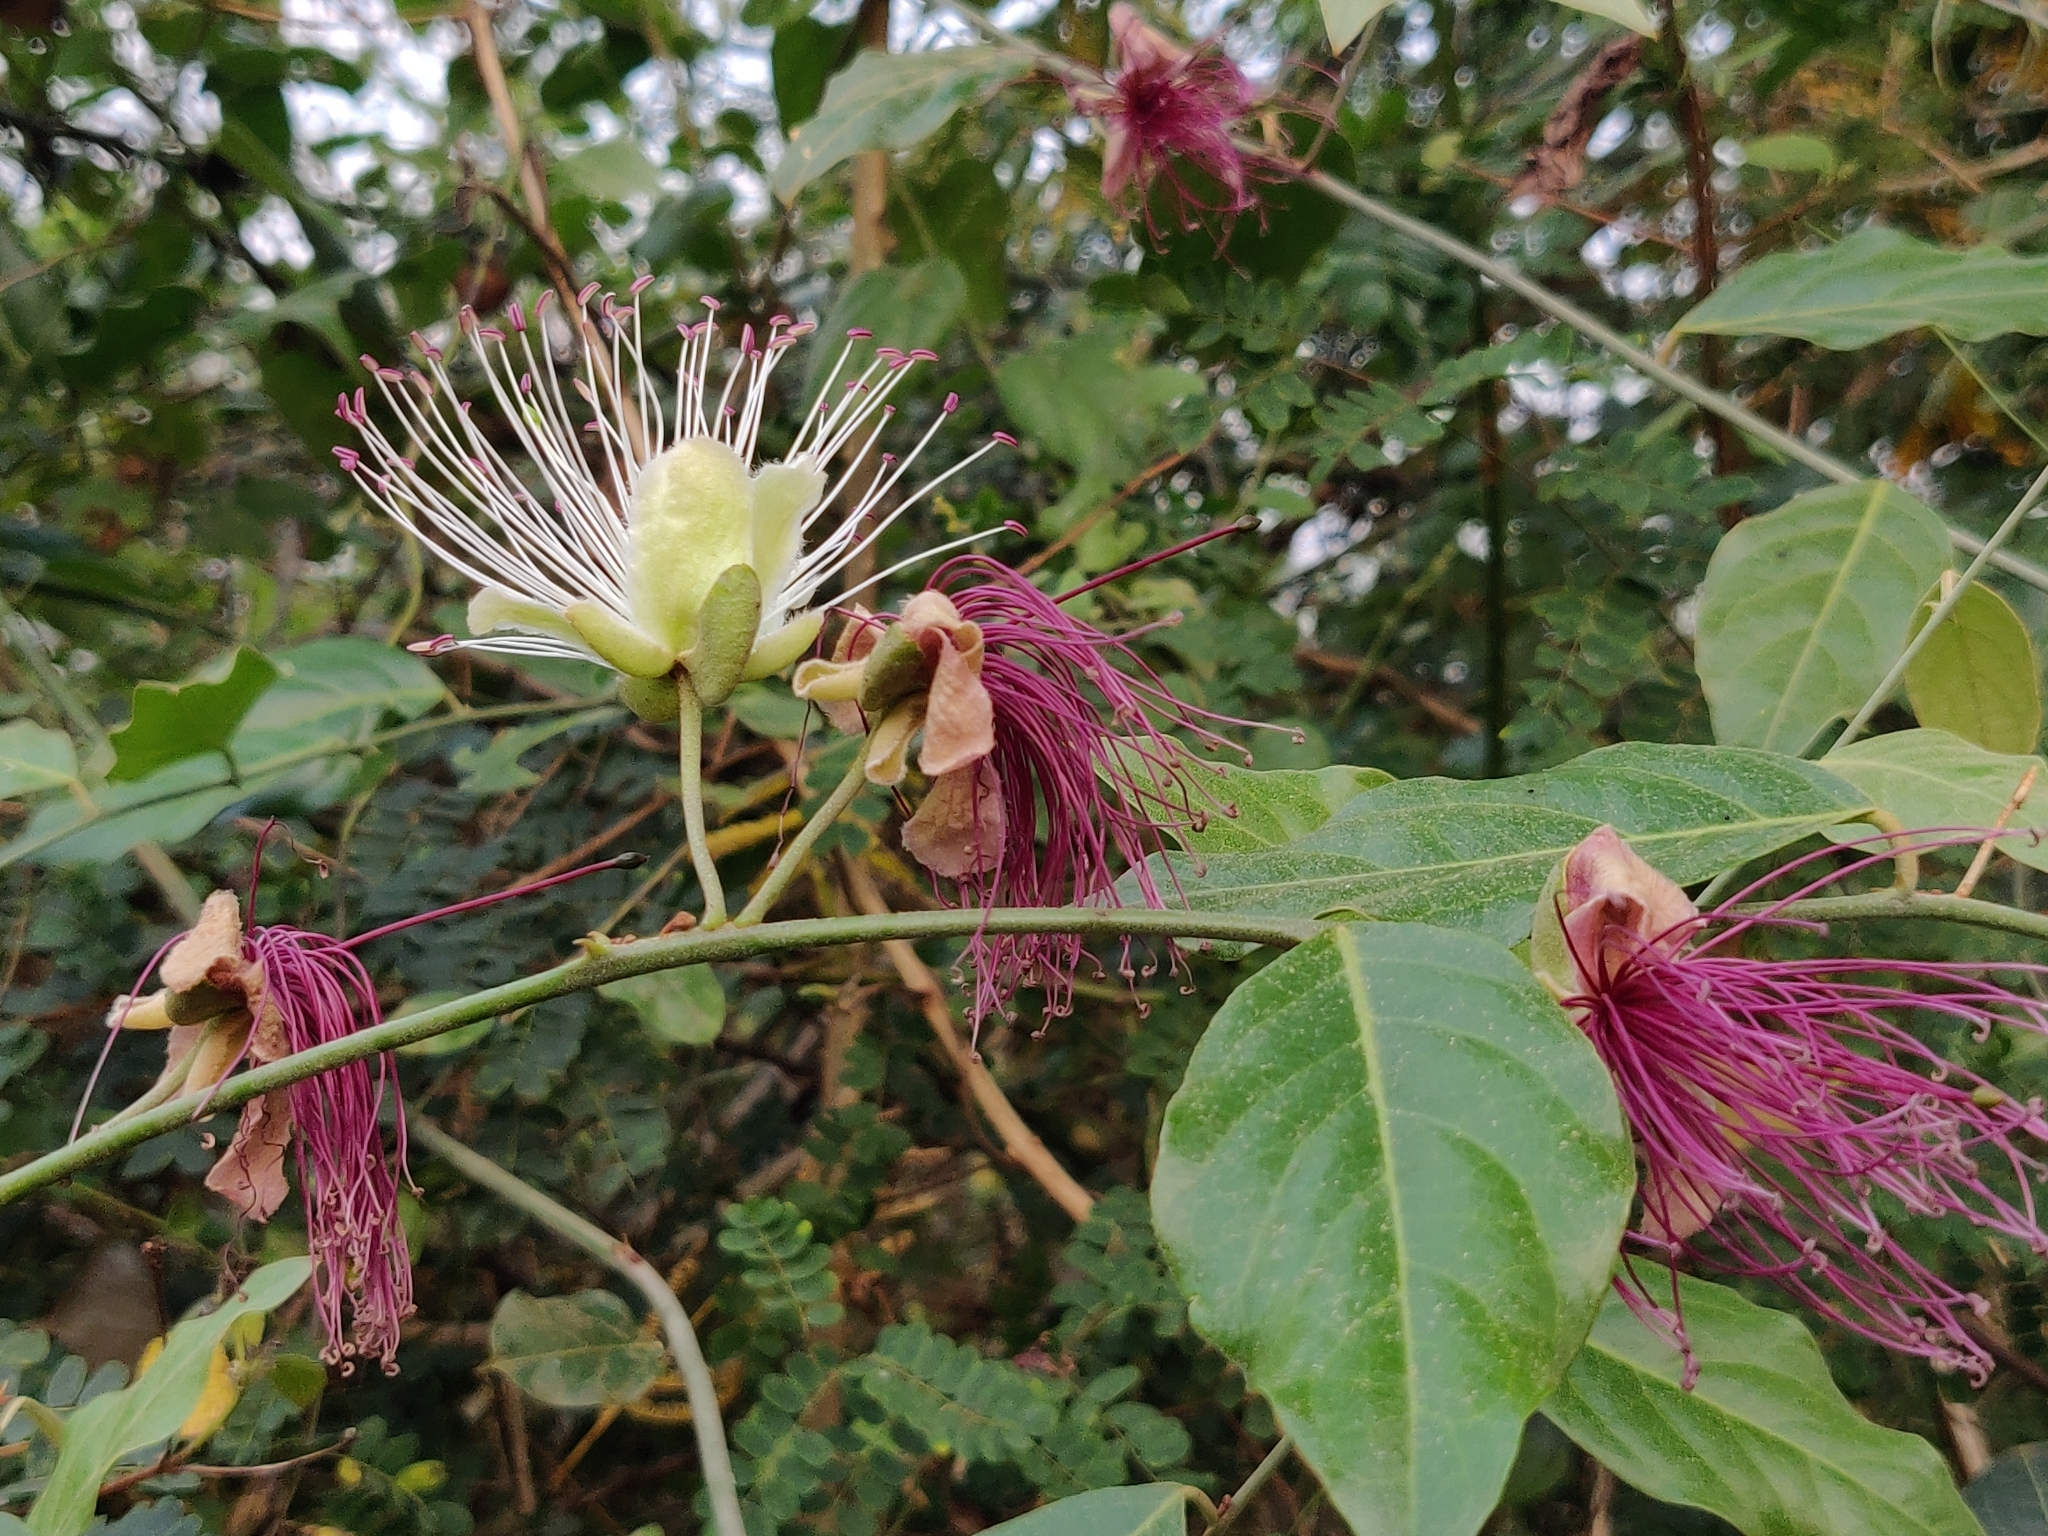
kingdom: Plantae
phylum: Tracheophyta
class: Magnoliopsida
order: Brassicales
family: Capparaceae
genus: Capparis
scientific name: Capparis zeylanica
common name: Ceylon caper
